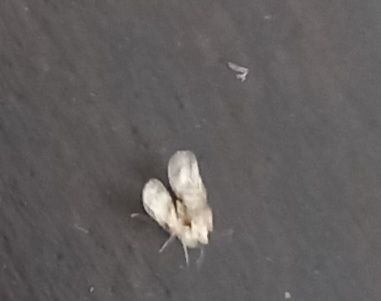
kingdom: Animalia
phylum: Arthropoda
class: Insecta
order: Hemiptera
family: Tingidae
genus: Corythucha
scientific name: Corythucha arcuata
